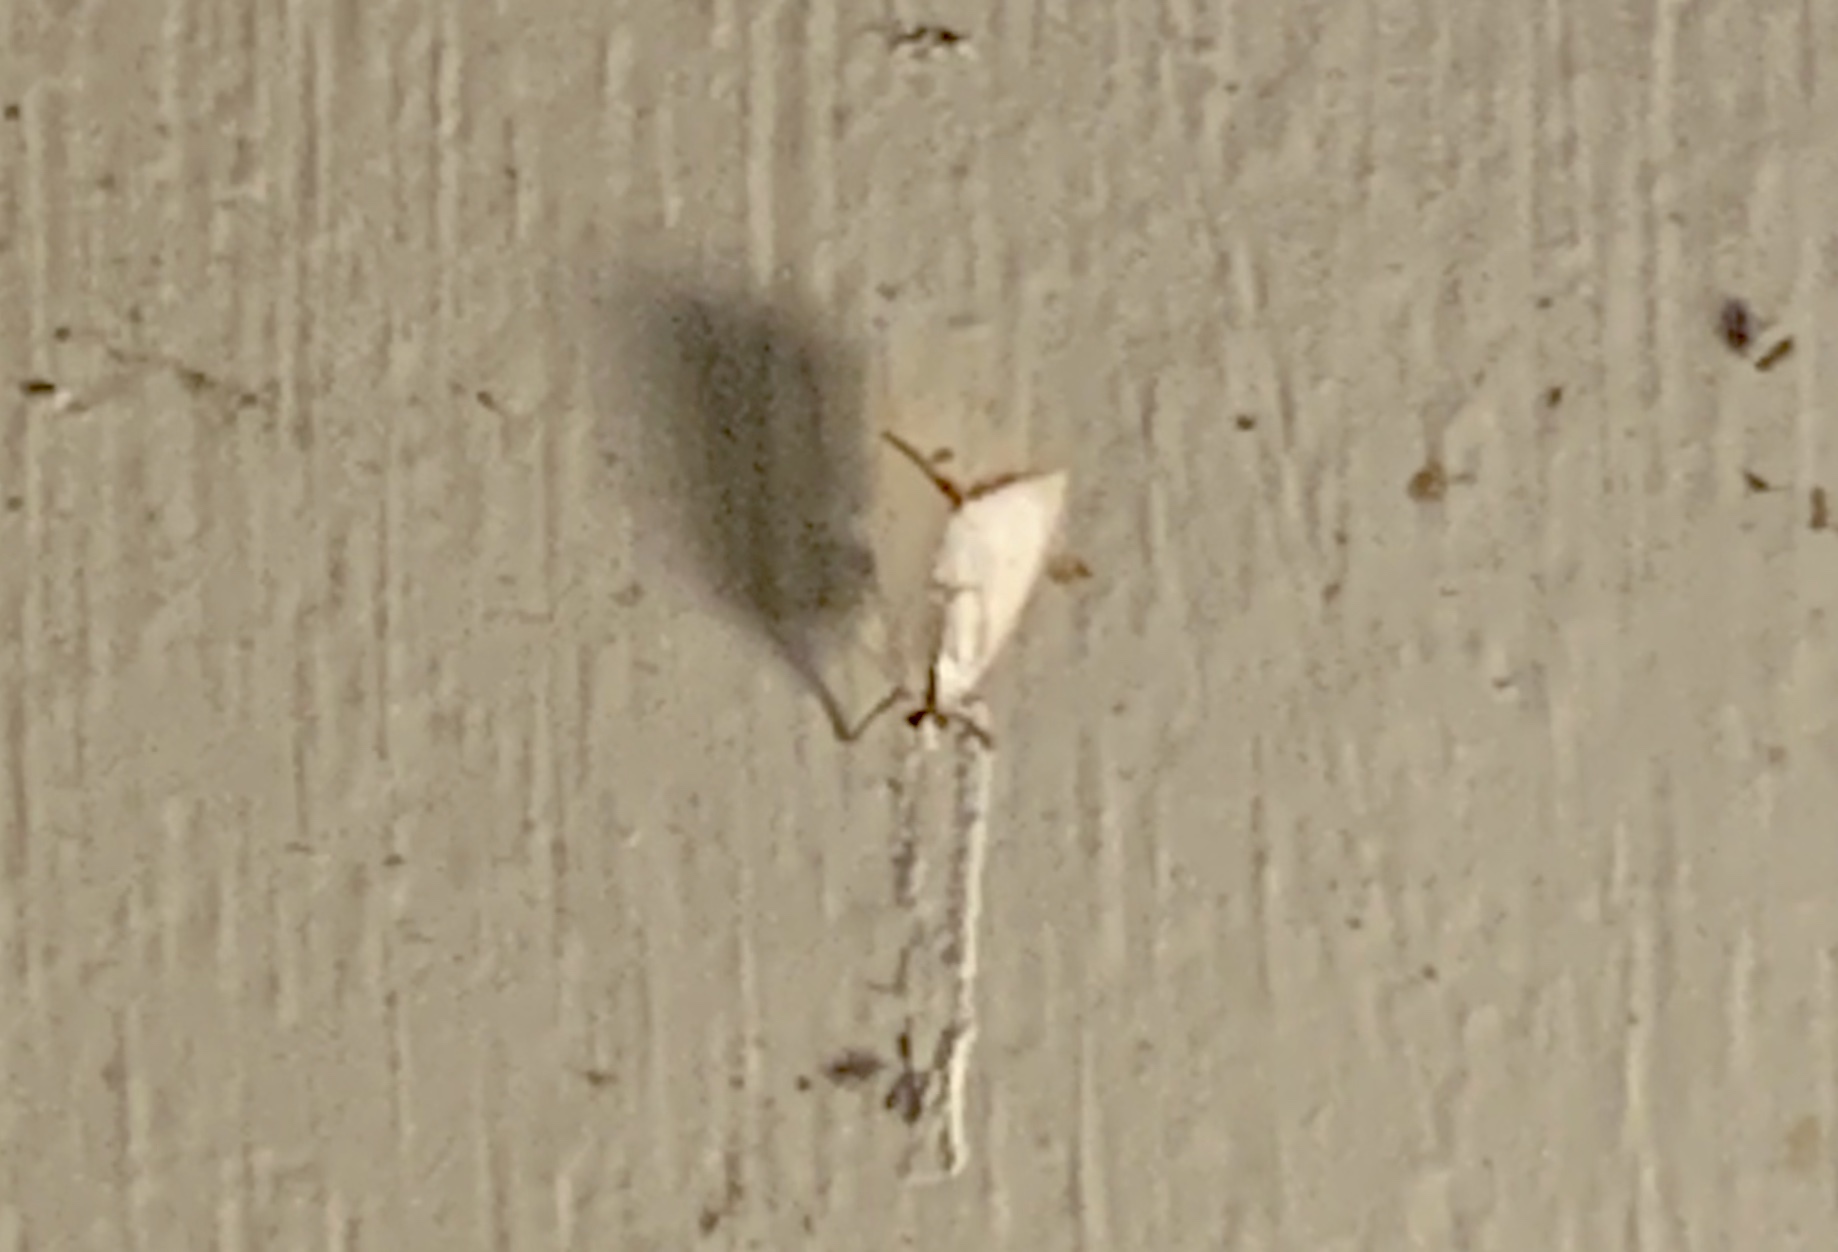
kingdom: Animalia
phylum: Arthropoda
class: Insecta
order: Lepidoptera
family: Crambidae
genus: Argyria
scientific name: Argyria nivalis
